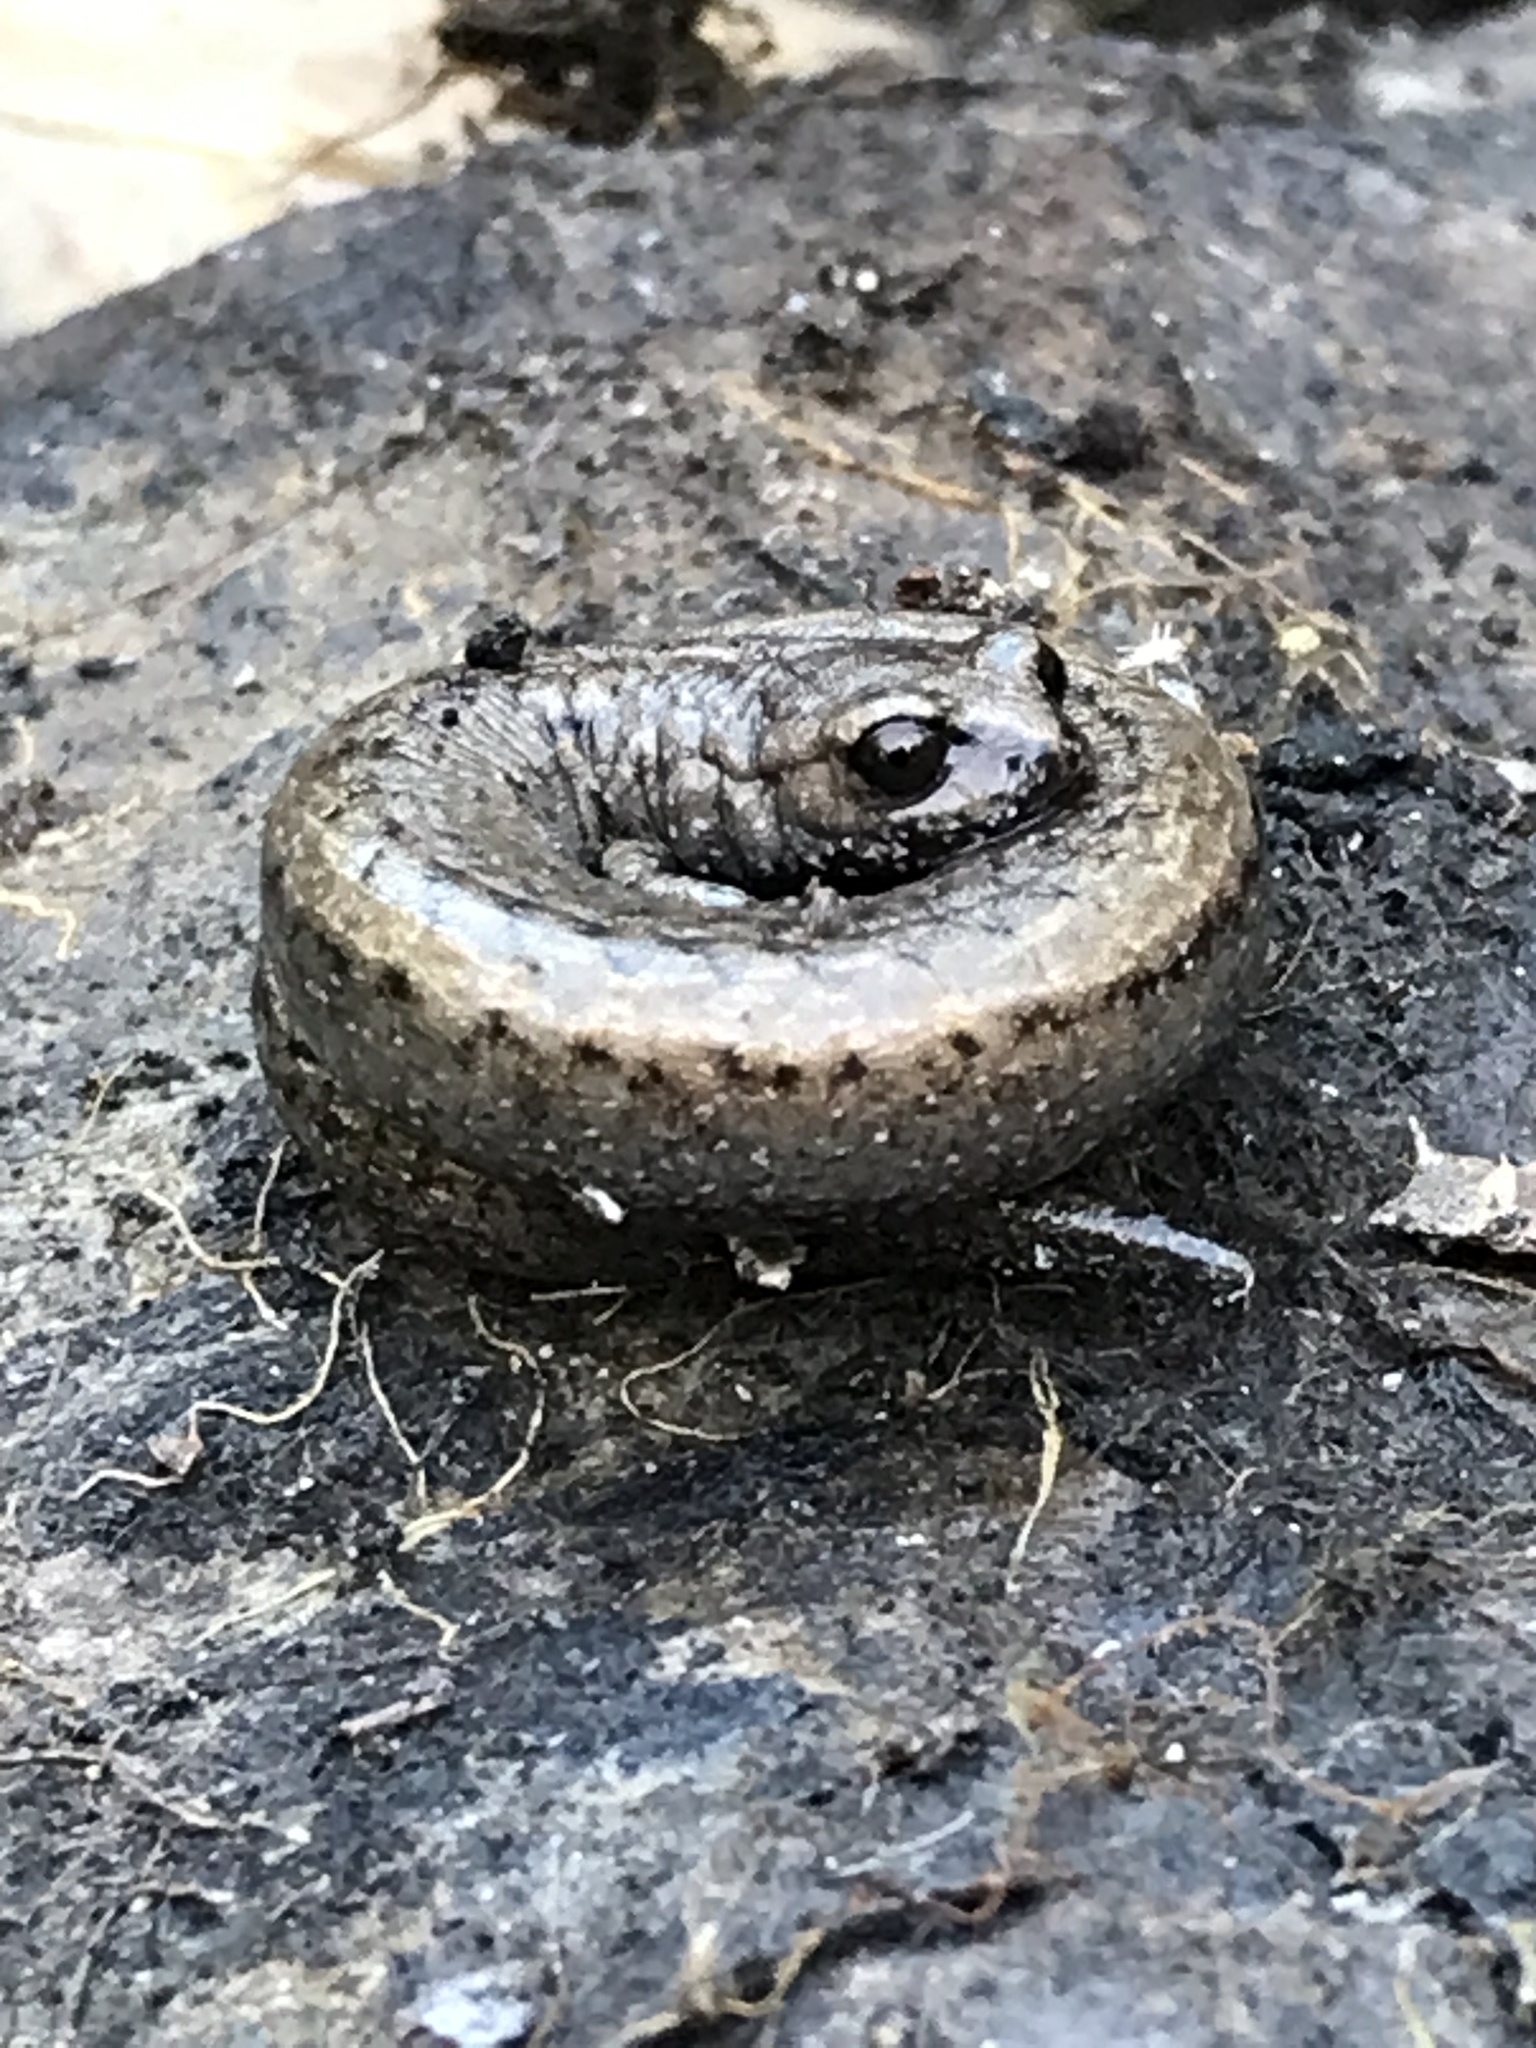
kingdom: Animalia
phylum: Chordata
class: Amphibia
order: Caudata
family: Plethodontidae
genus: Batrachoseps
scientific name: Batrachoseps gavilanensis
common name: Gabilan mountains slender salamander
